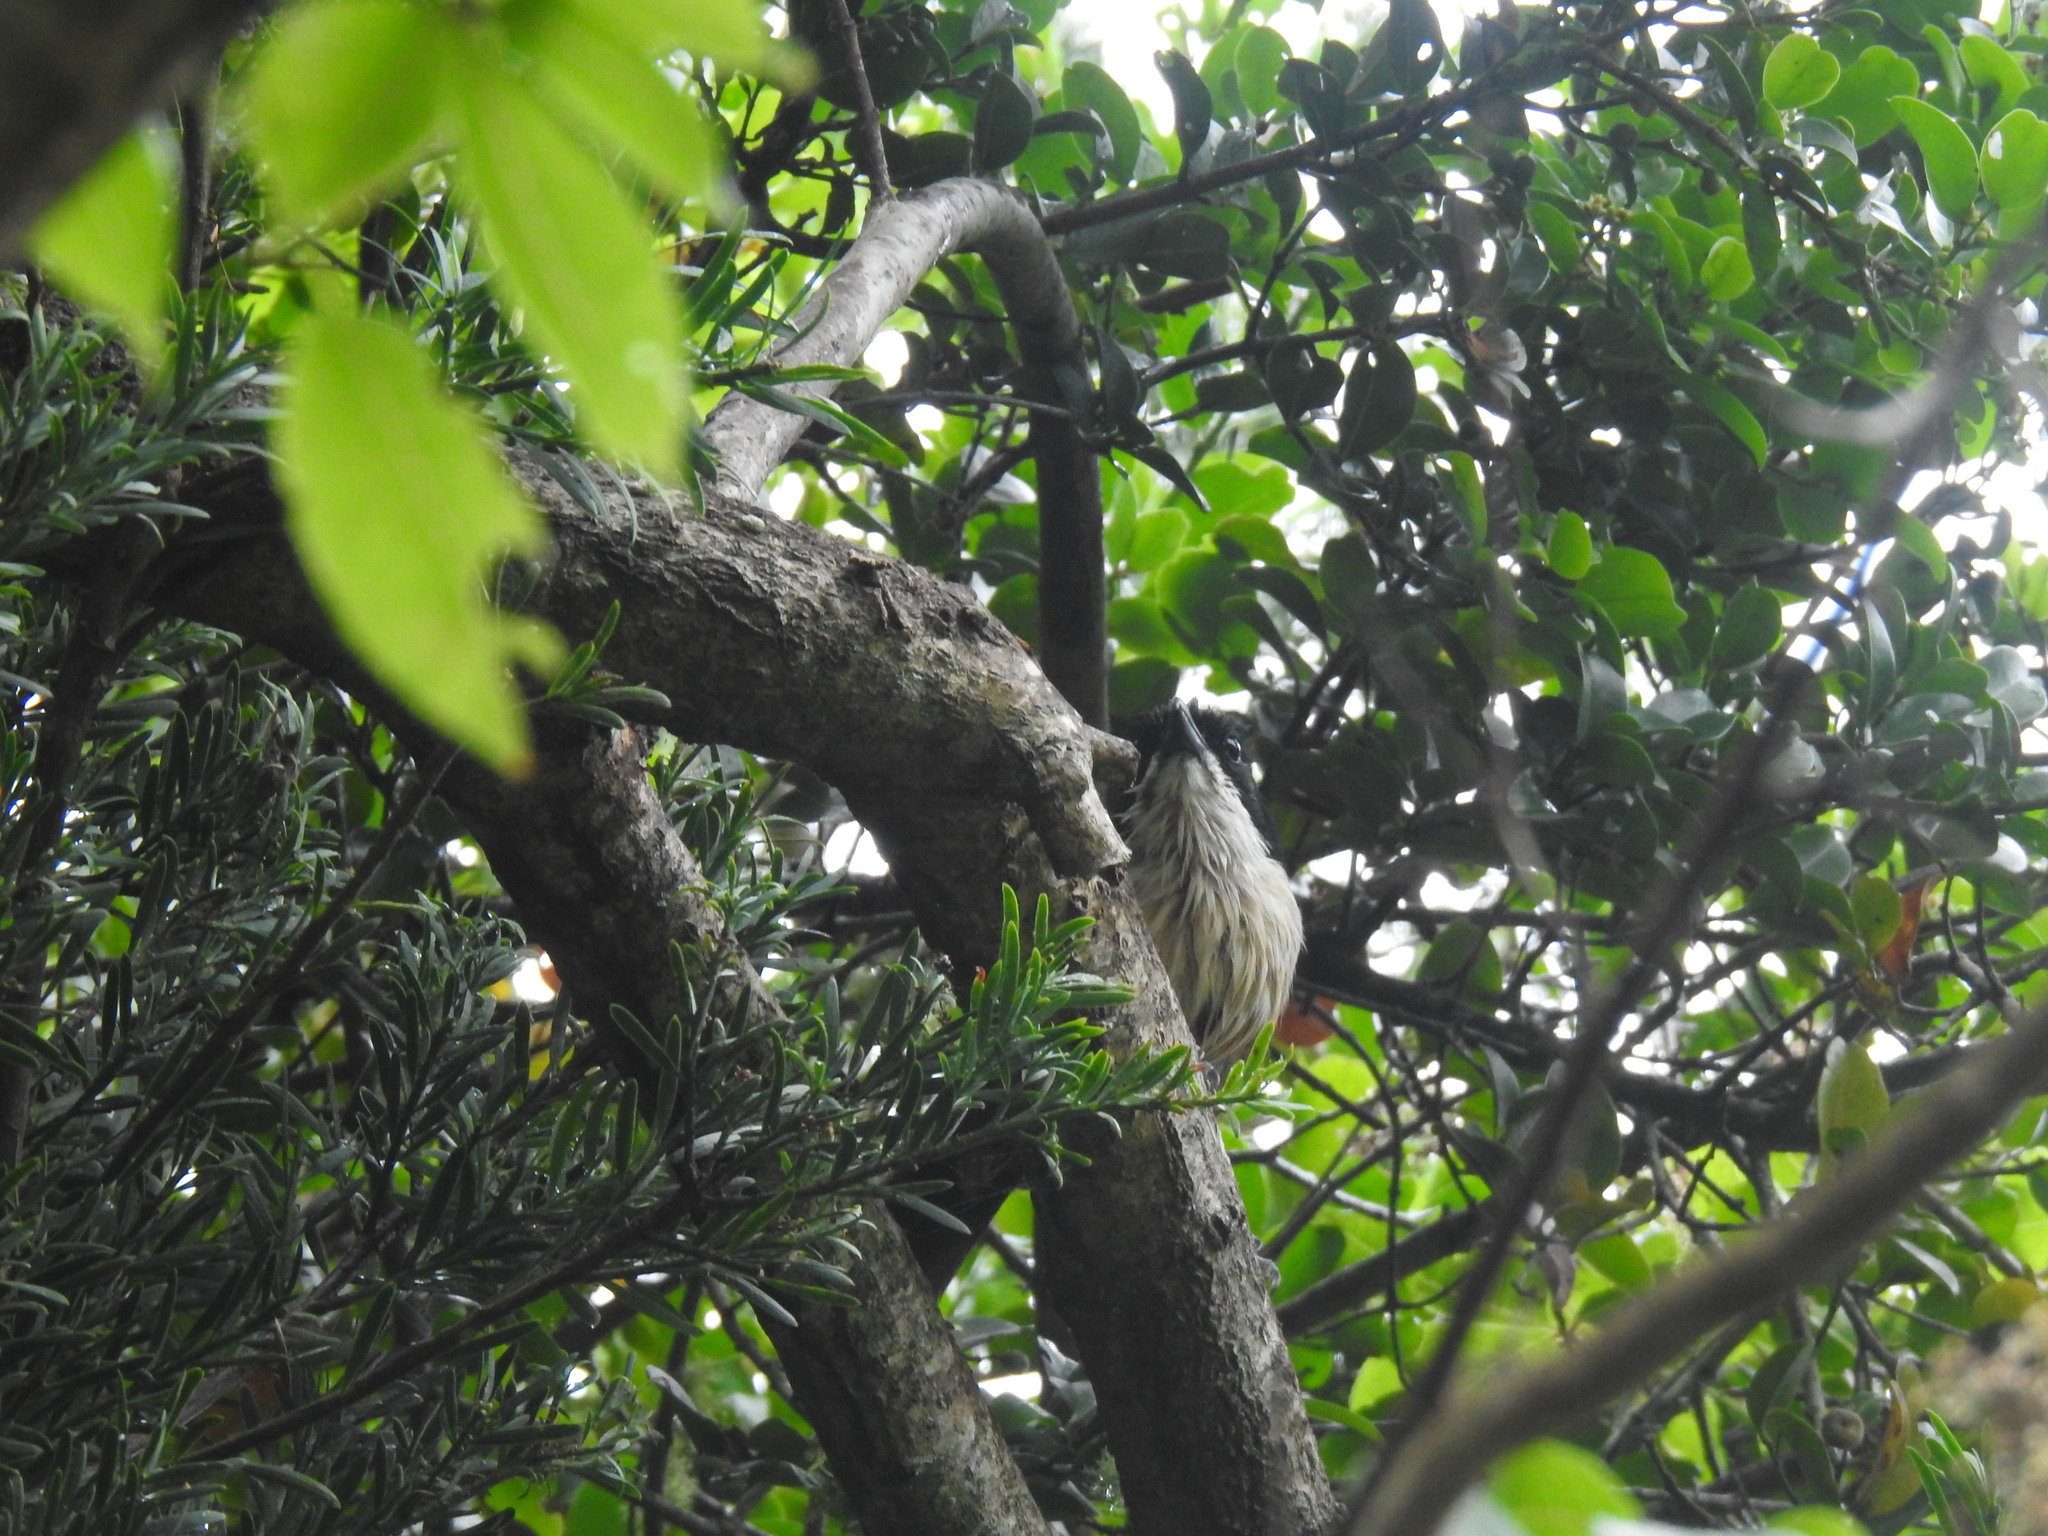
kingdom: Animalia
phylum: Chordata
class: Aves
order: Passeriformes
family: Malaconotidae
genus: Laniarius
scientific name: Laniarius ferrugineus
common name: Southern boubou
